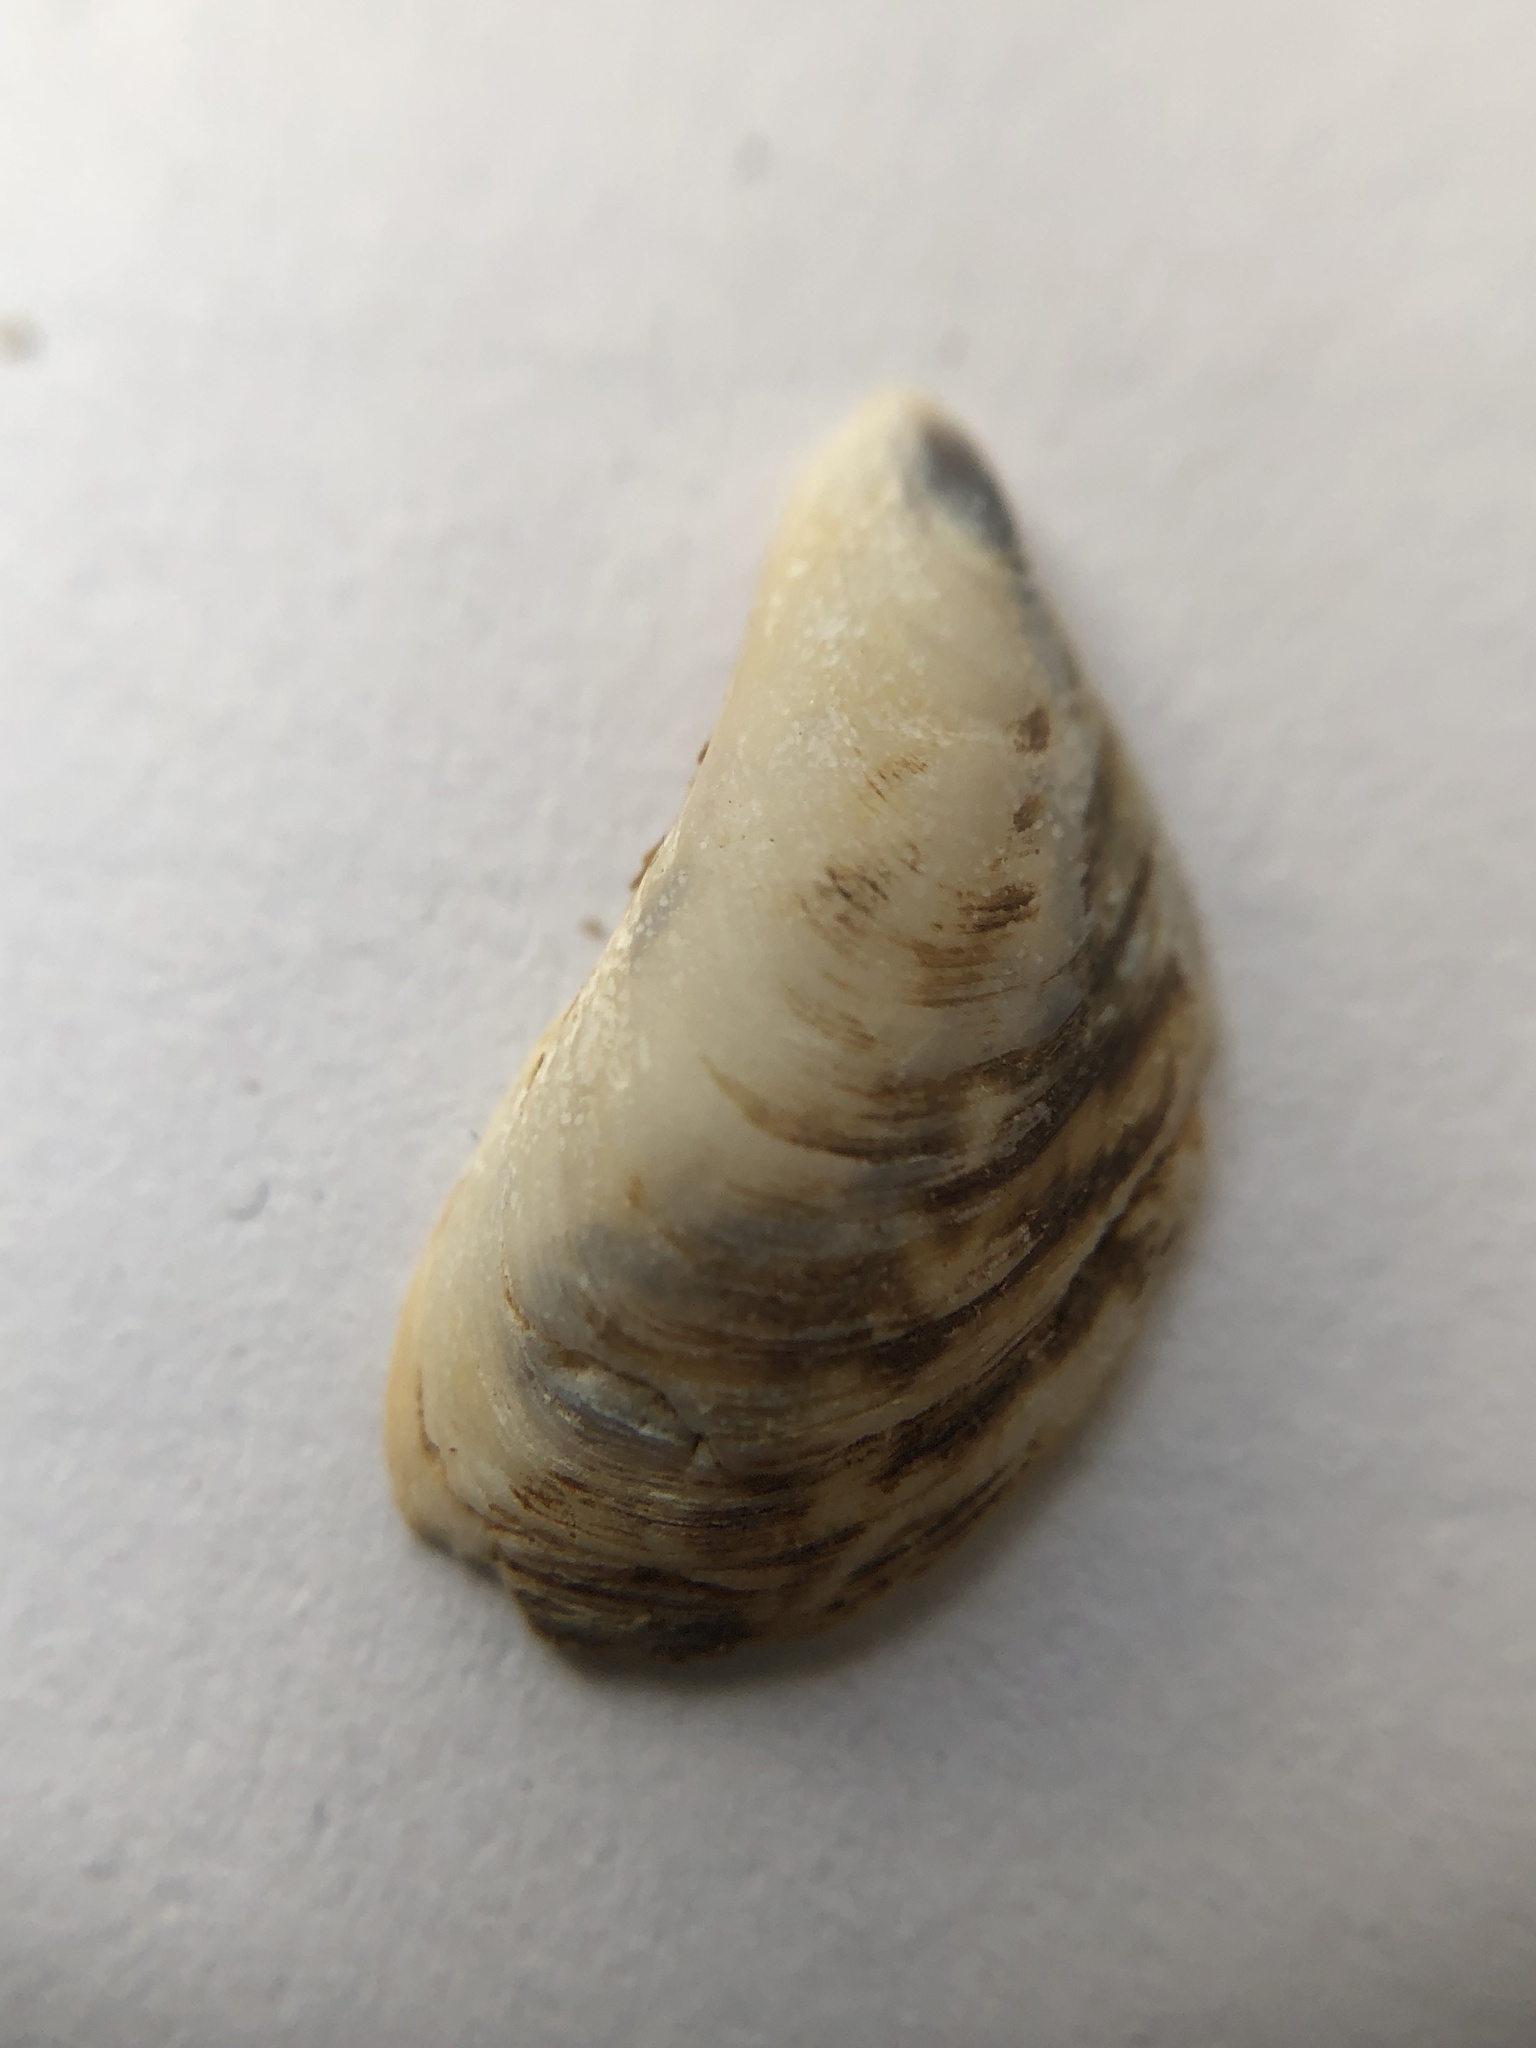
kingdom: Animalia
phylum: Mollusca
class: Bivalvia
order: Myida
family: Dreissenidae
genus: Dreissena
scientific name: Dreissena bugensis
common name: Quagga mussel
